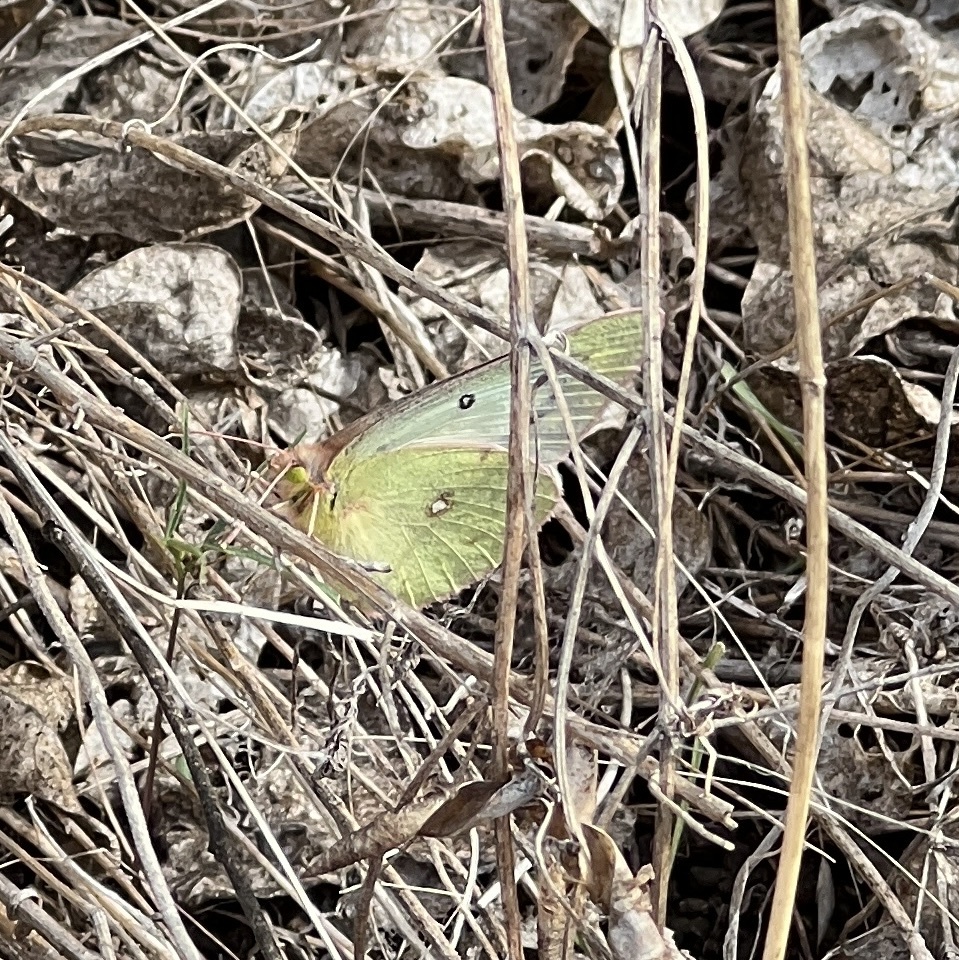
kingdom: Animalia
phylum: Arthropoda
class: Insecta
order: Lepidoptera
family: Pieridae
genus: Colias
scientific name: Colias eurytheme
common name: Alfalfa butterfly
